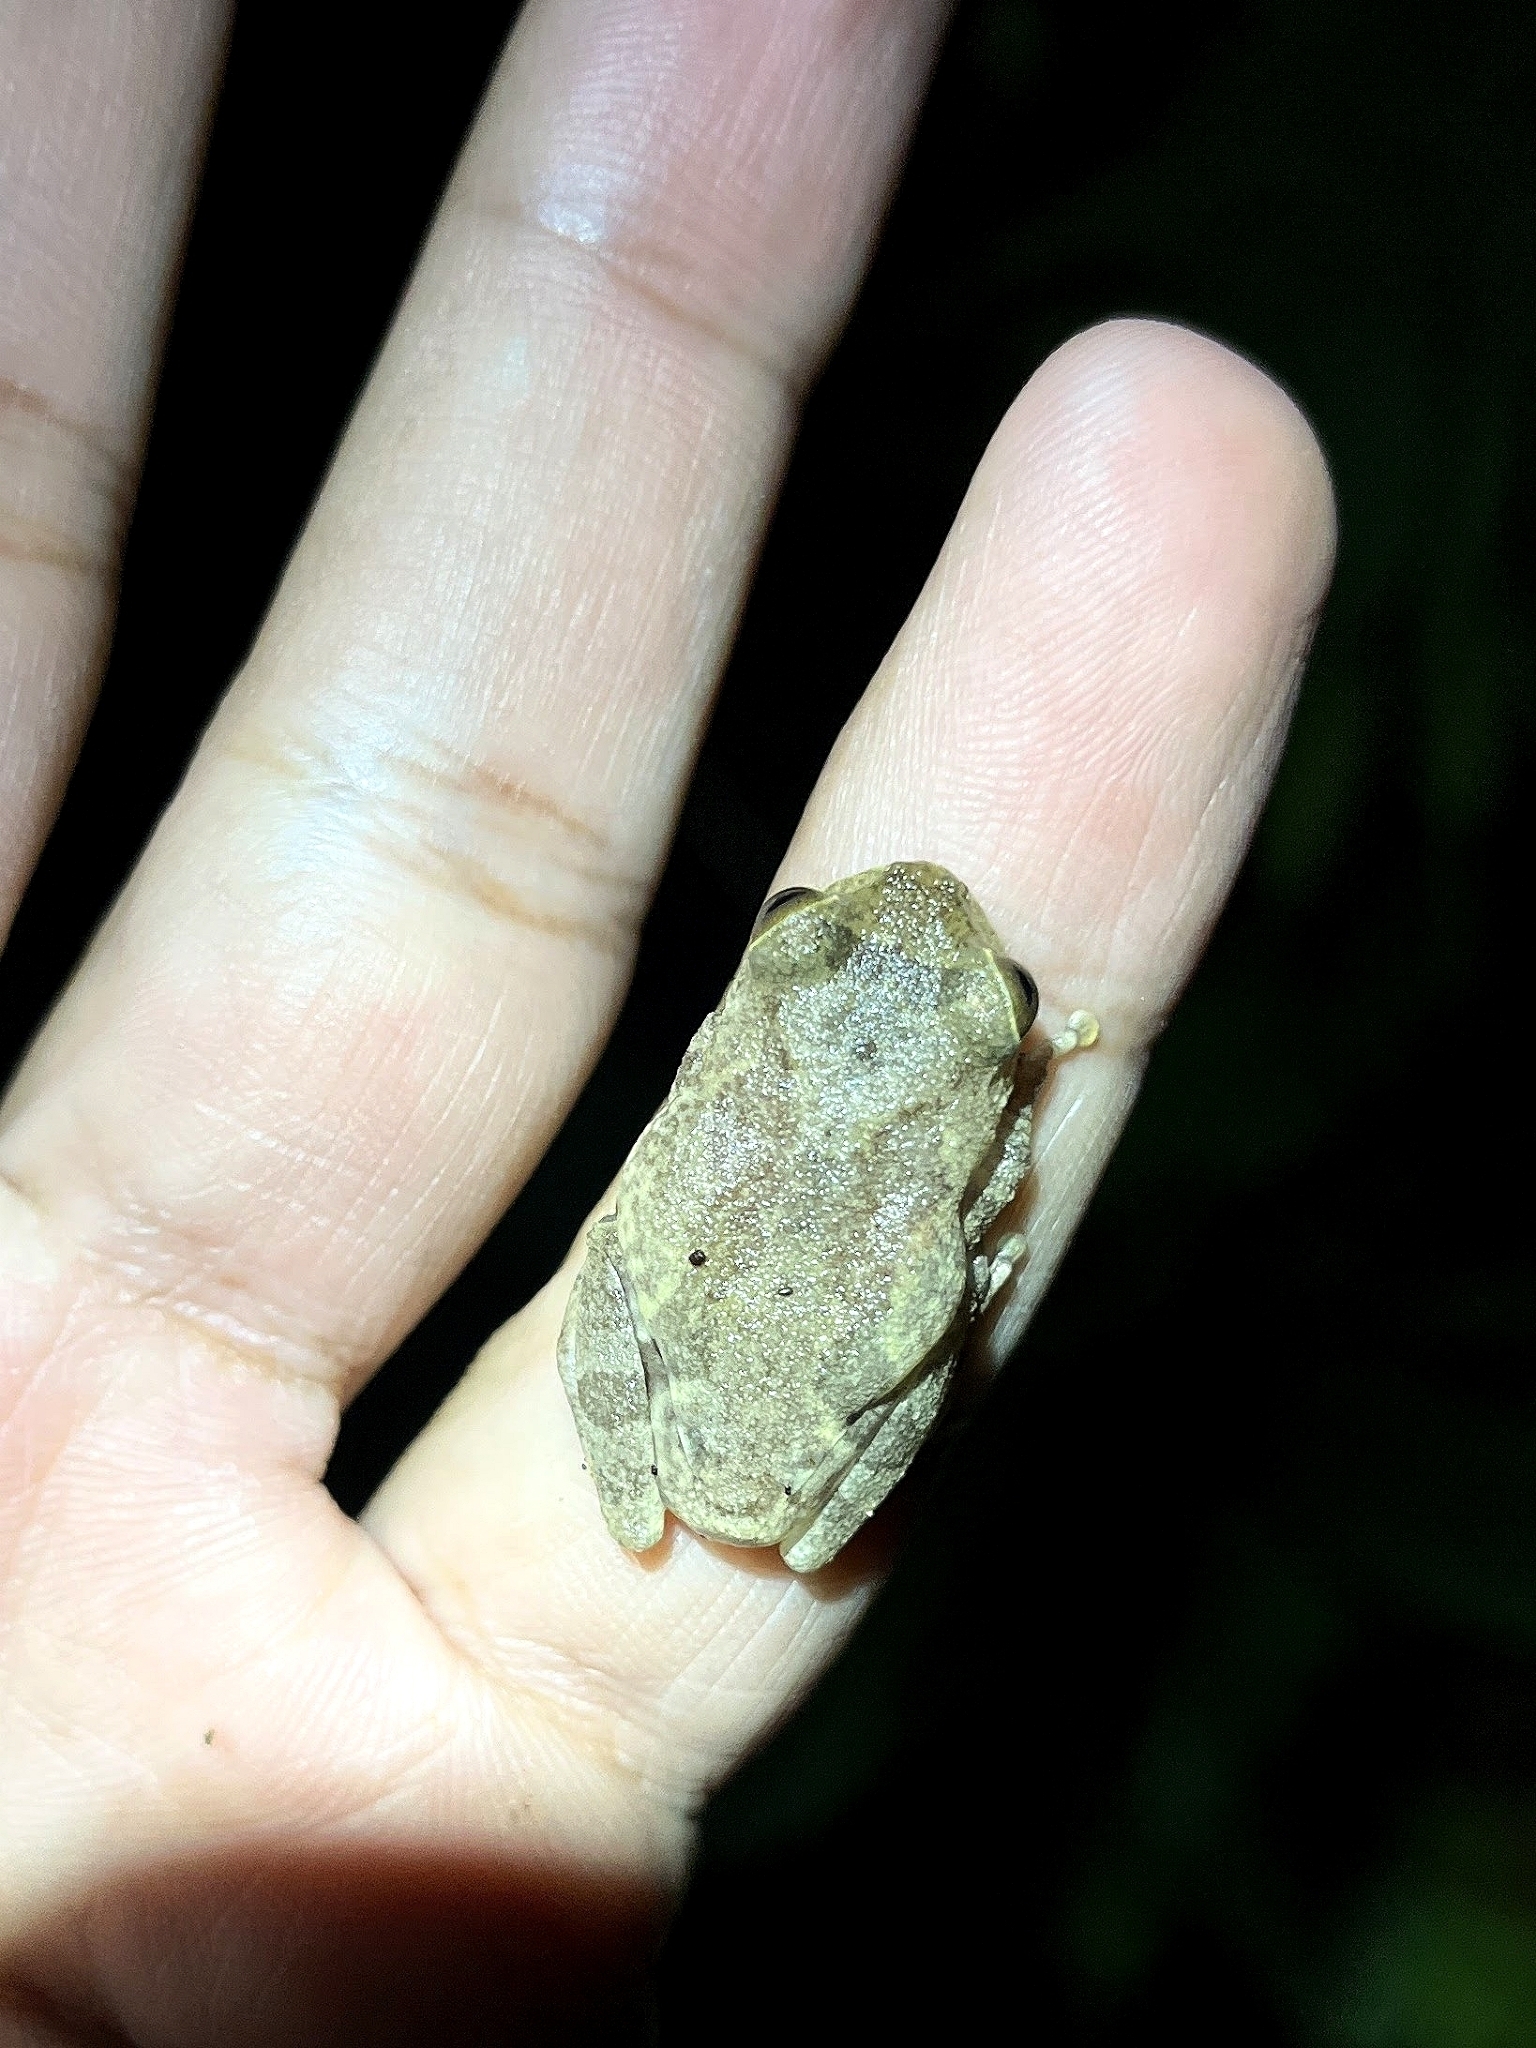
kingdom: Animalia
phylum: Chordata
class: Amphibia
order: Anura
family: Rhacophoridae
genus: Raorchestes
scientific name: Raorchestes hassanensis
